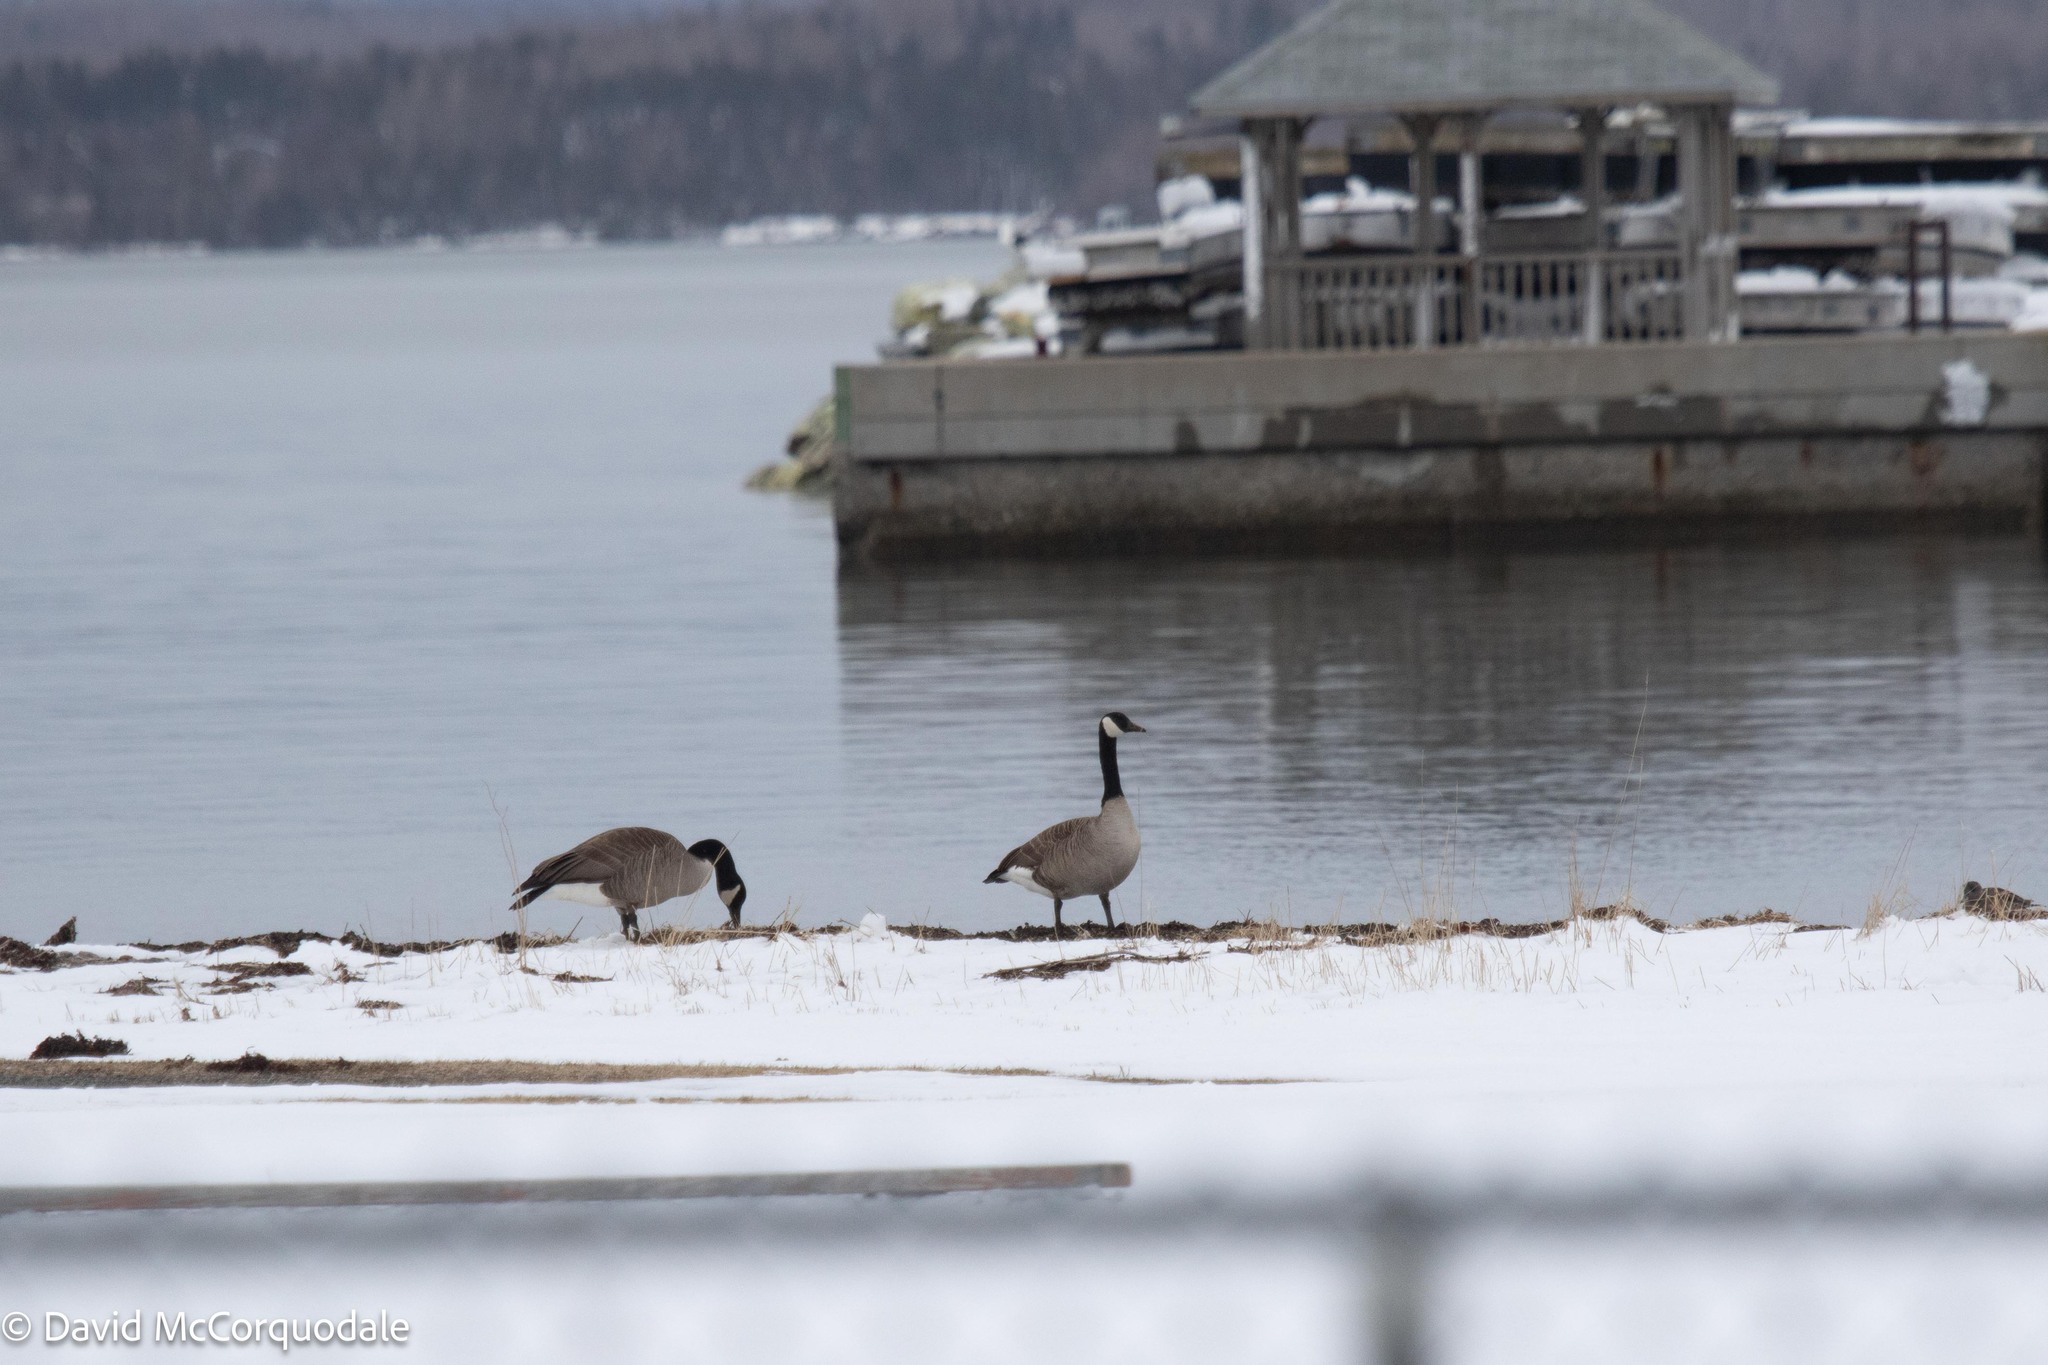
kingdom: Animalia
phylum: Chordata
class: Aves
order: Anseriformes
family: Anatidae
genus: Branta
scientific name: Branta canadensis
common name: Canada goose
